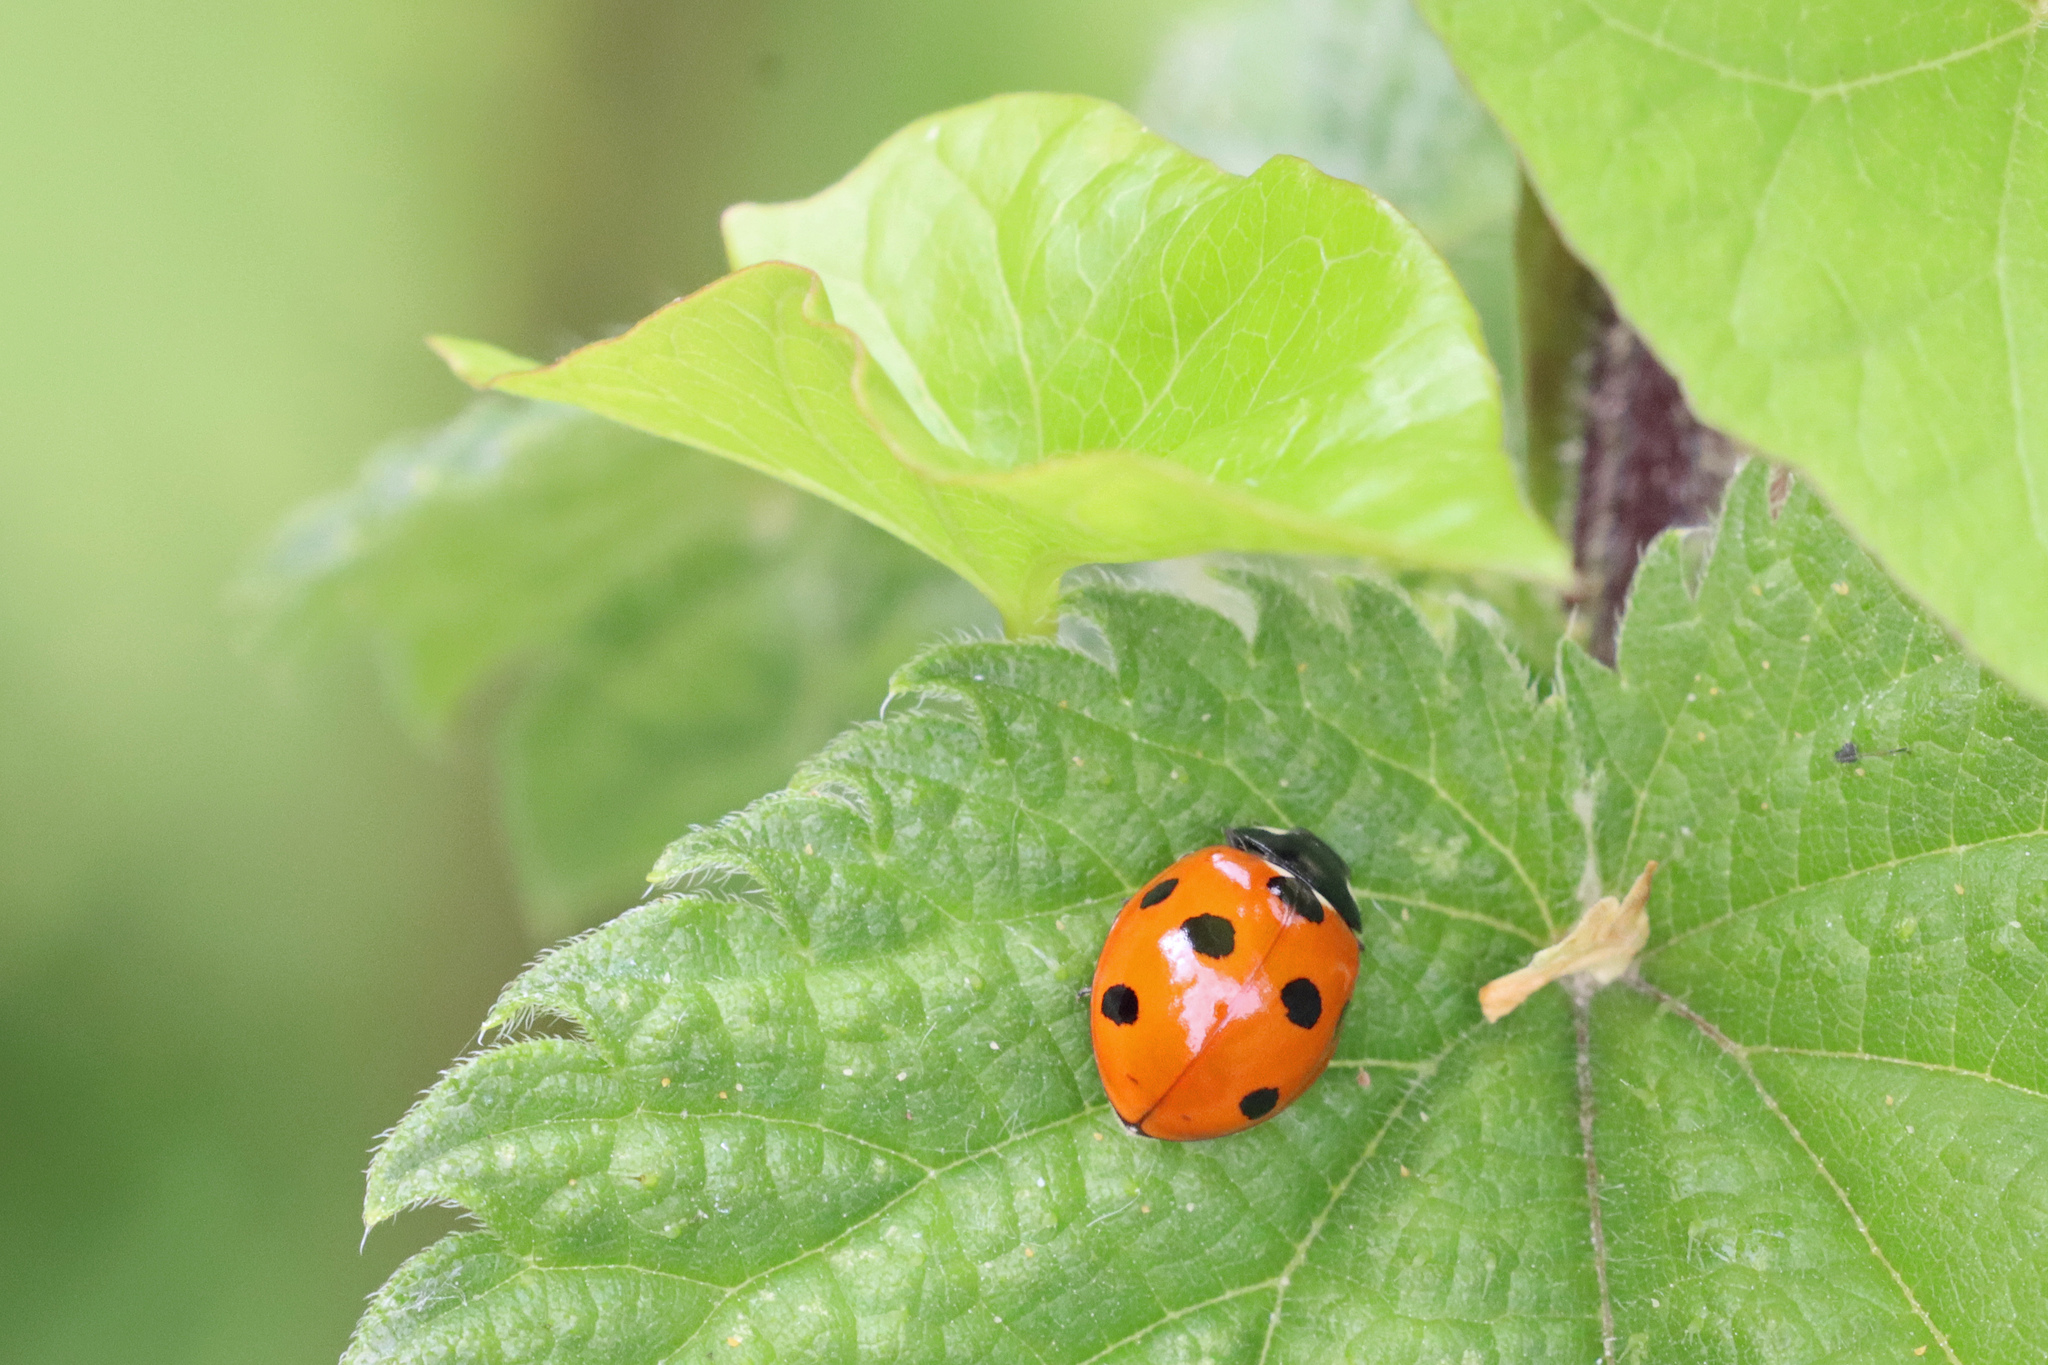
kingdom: Animalia
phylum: Arthropoda
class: Insecta
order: Coleoptera
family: Coccinellidae
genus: Coccinella
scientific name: Coccinella septempunctata
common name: Sevenspotted lady beetle
